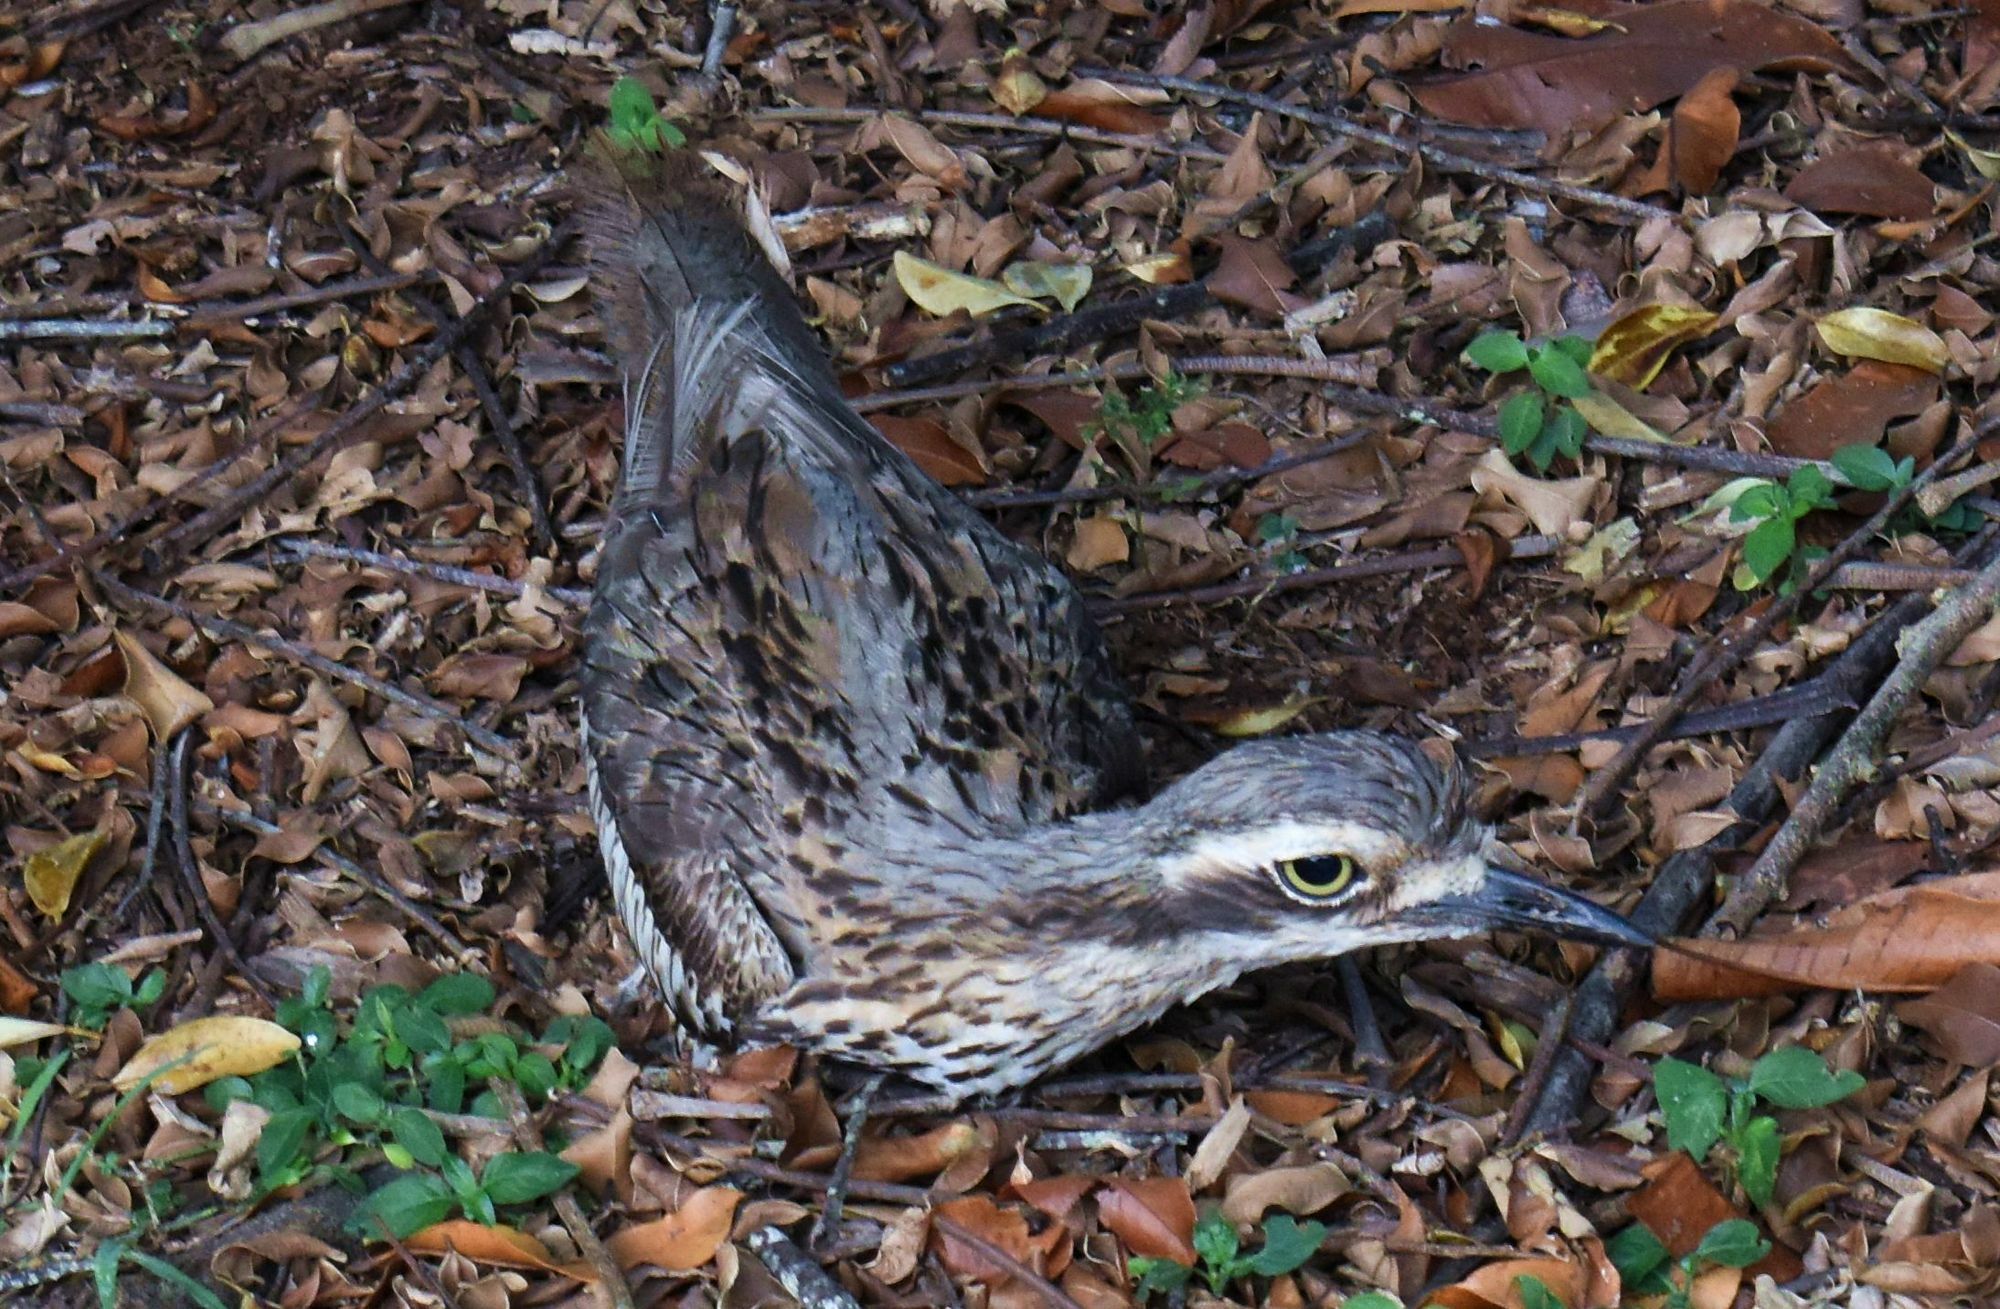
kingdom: Animalia
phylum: Chordata
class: Aves
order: Charadriiformes
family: Burhinidae
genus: Burhinus
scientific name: Burhinus grallarius
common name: Bush stone-curlew
